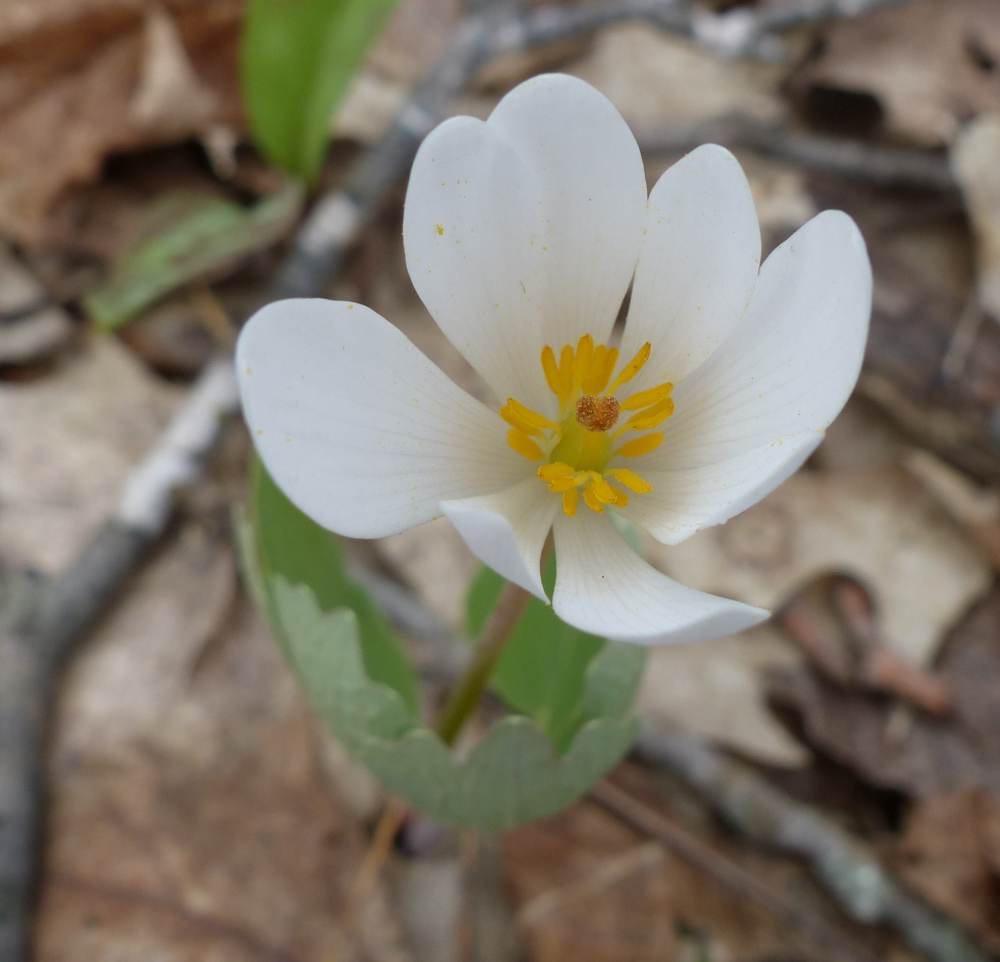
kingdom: Plantae
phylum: Tracheophyta
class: Magnoliopsida
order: Ranunculales
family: Papaveraceae
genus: Sanguinaria
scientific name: Sanguinaria canadensis
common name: Bloodroot
